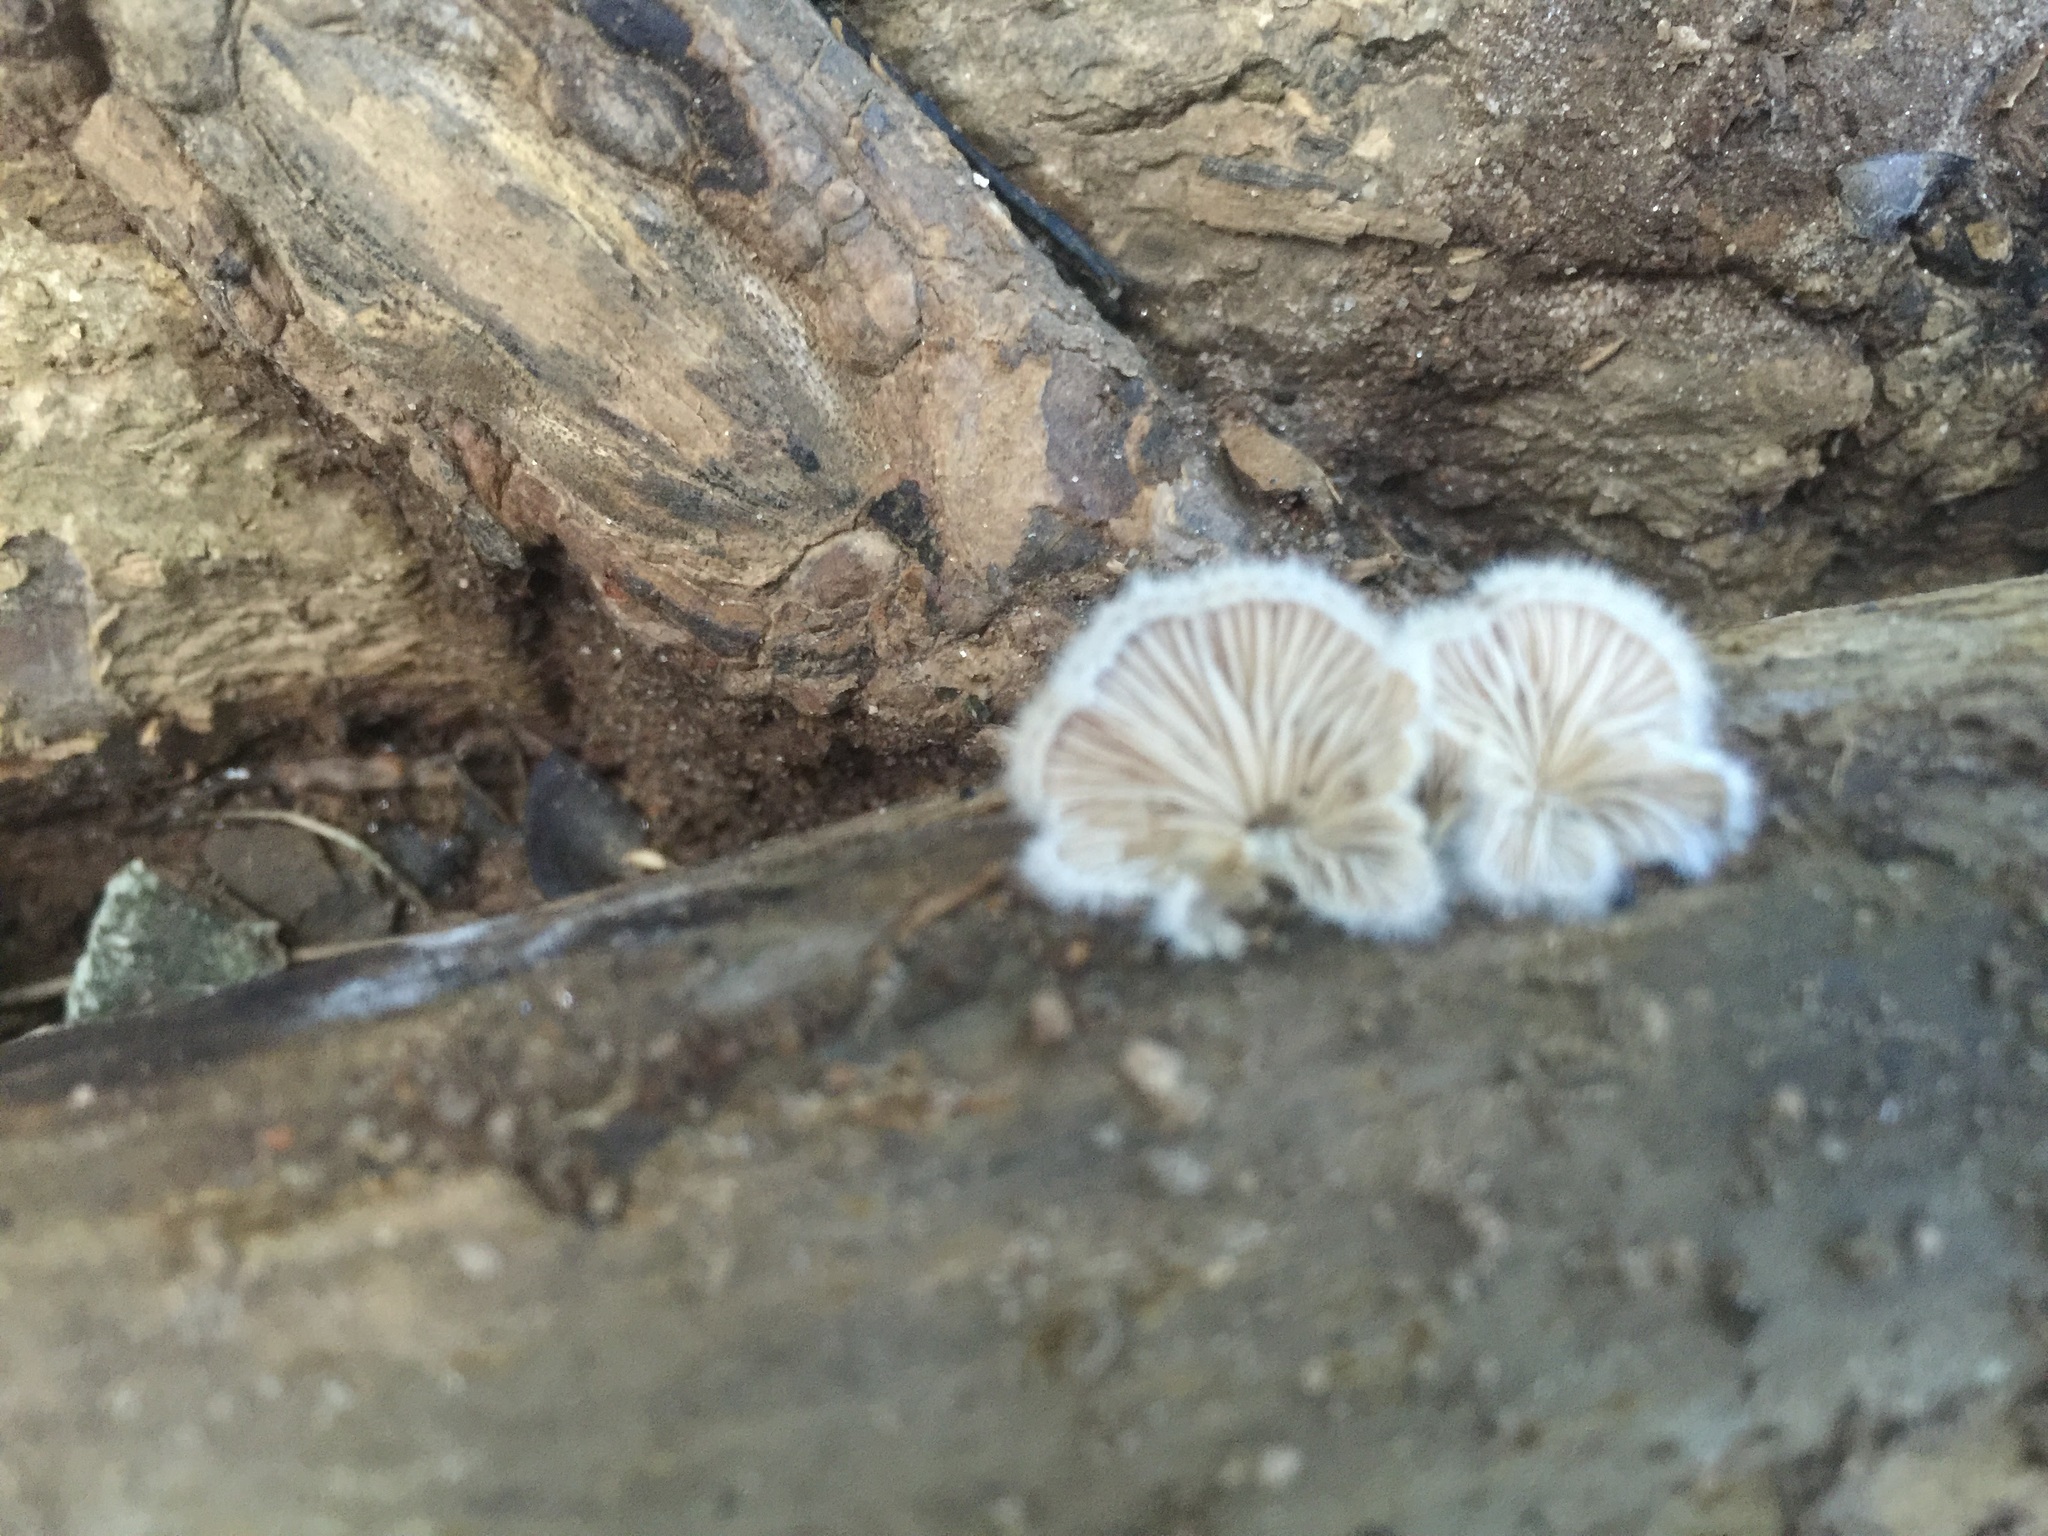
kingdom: Fungi
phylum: Basidiomycota
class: Agaricomycetes
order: Agaricales
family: Schizophyllaceae
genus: Schizophyllum
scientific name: Schizophyllum commune
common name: Common porecrust
